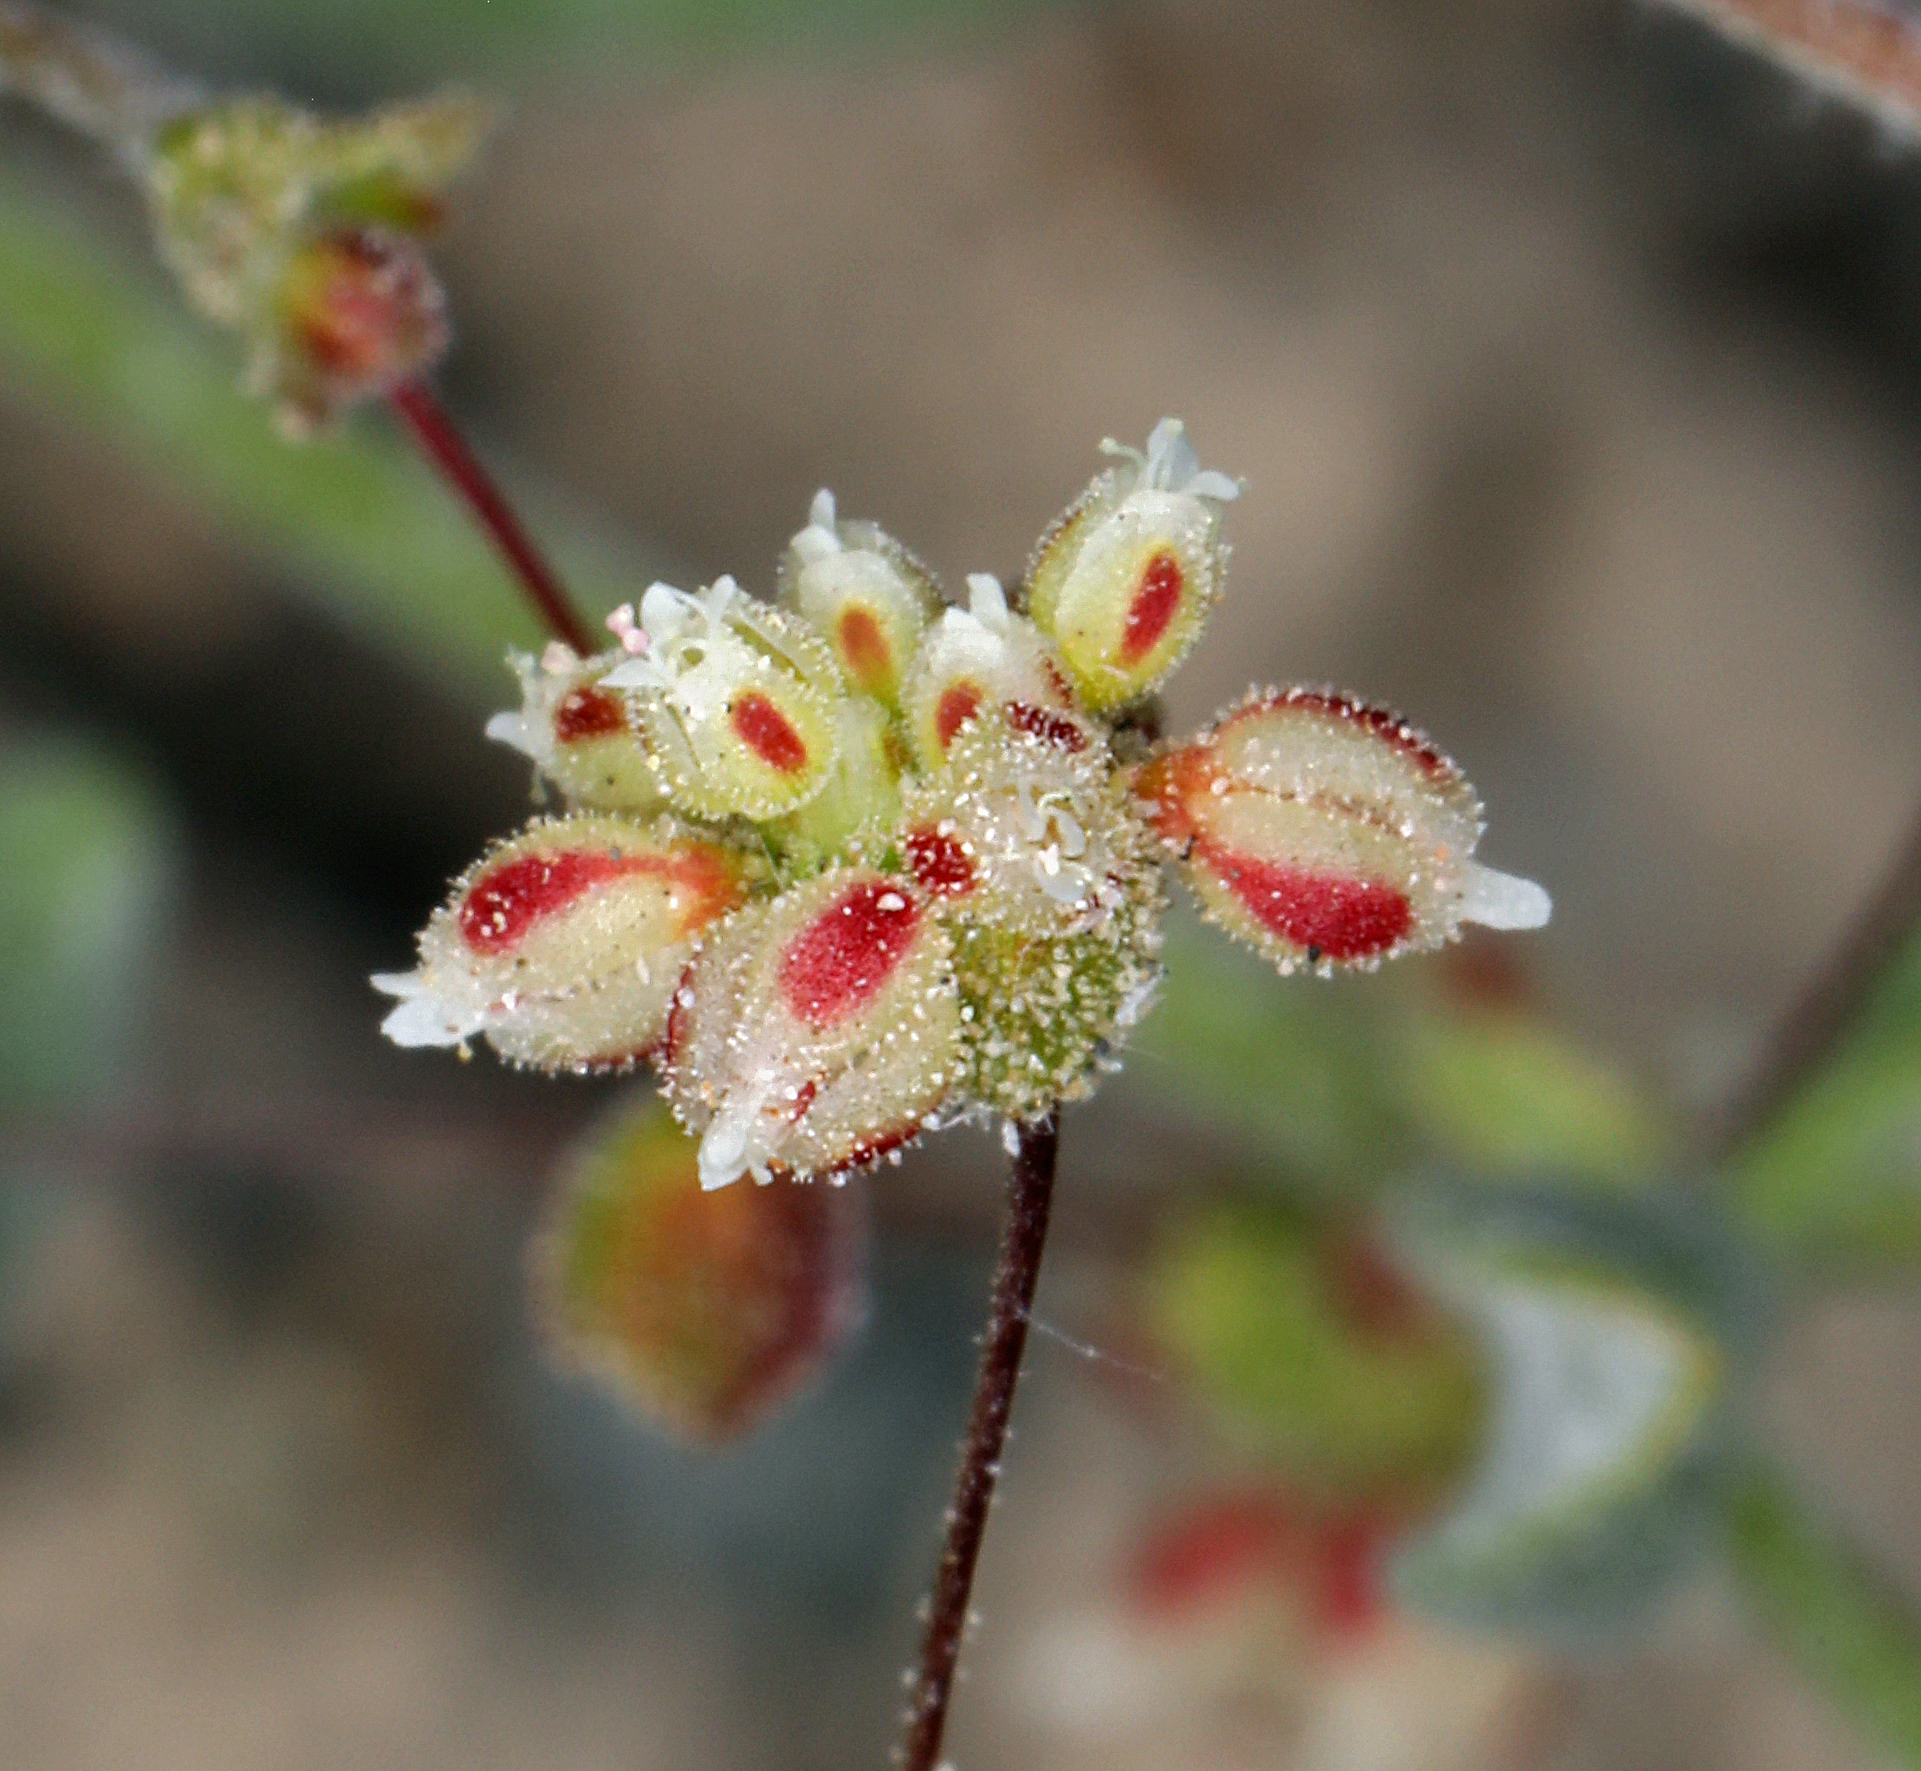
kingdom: Plantae
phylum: Tracheophyta
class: Magnoliopsida
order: Caryophyllales
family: Polygonaceae
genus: Eriogonum
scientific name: Eriogonum maculatum
